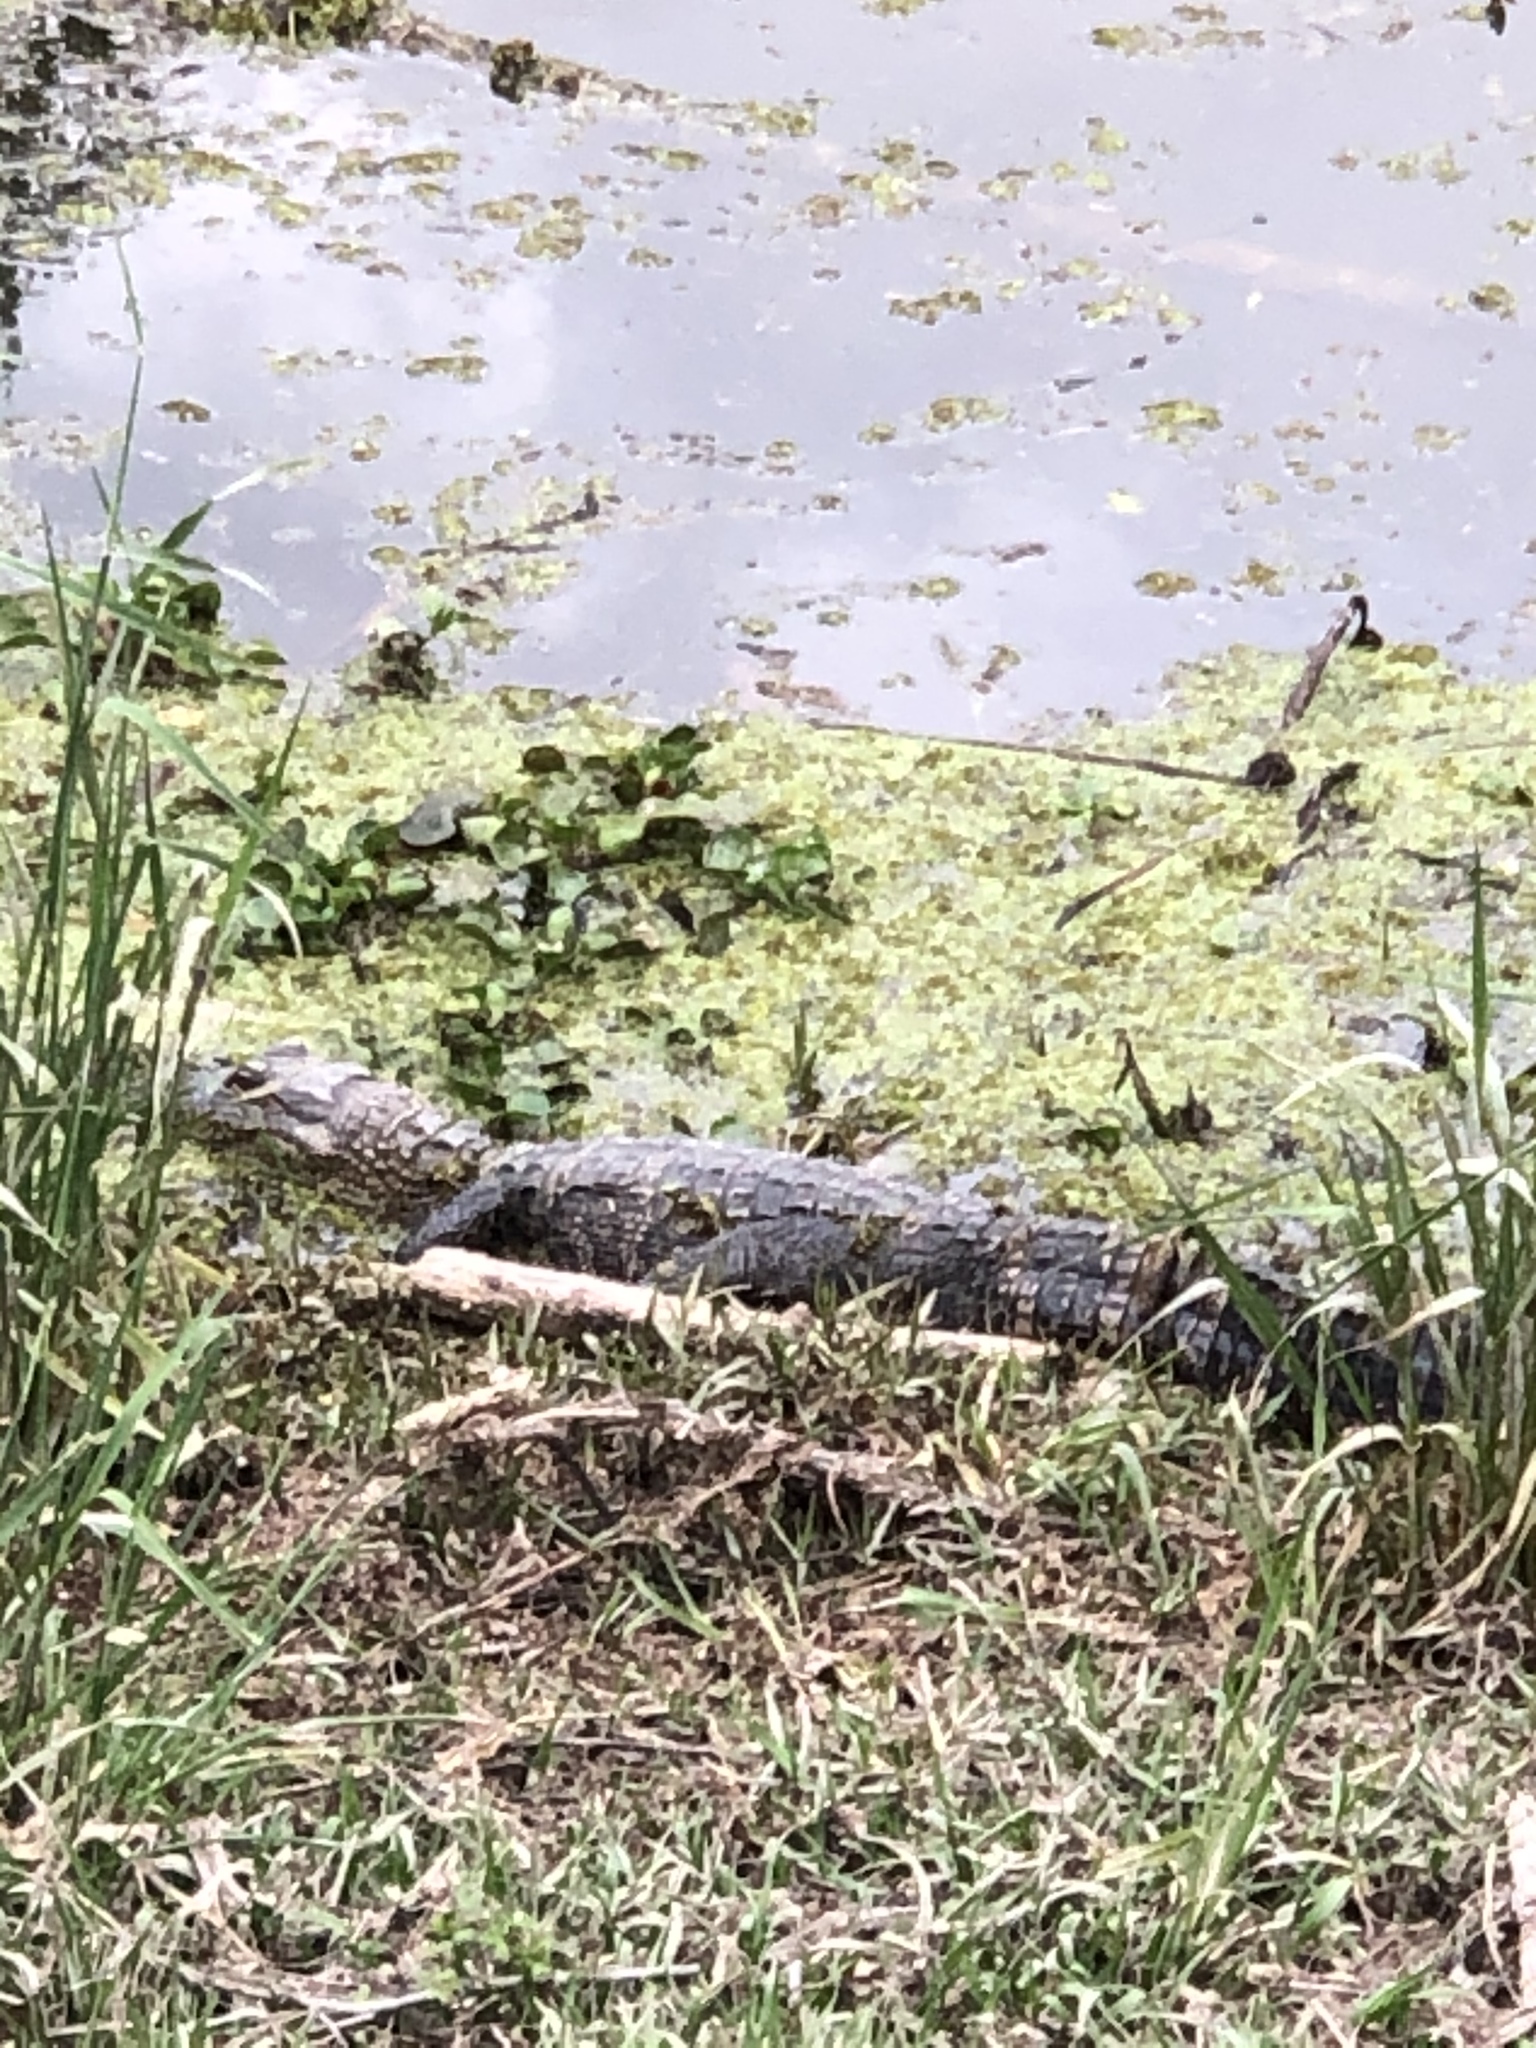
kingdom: Animalia
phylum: Chordata
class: Crocodylia
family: Alligatoridae
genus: Alligator
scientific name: Alligator mississippiensis
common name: American alligator
